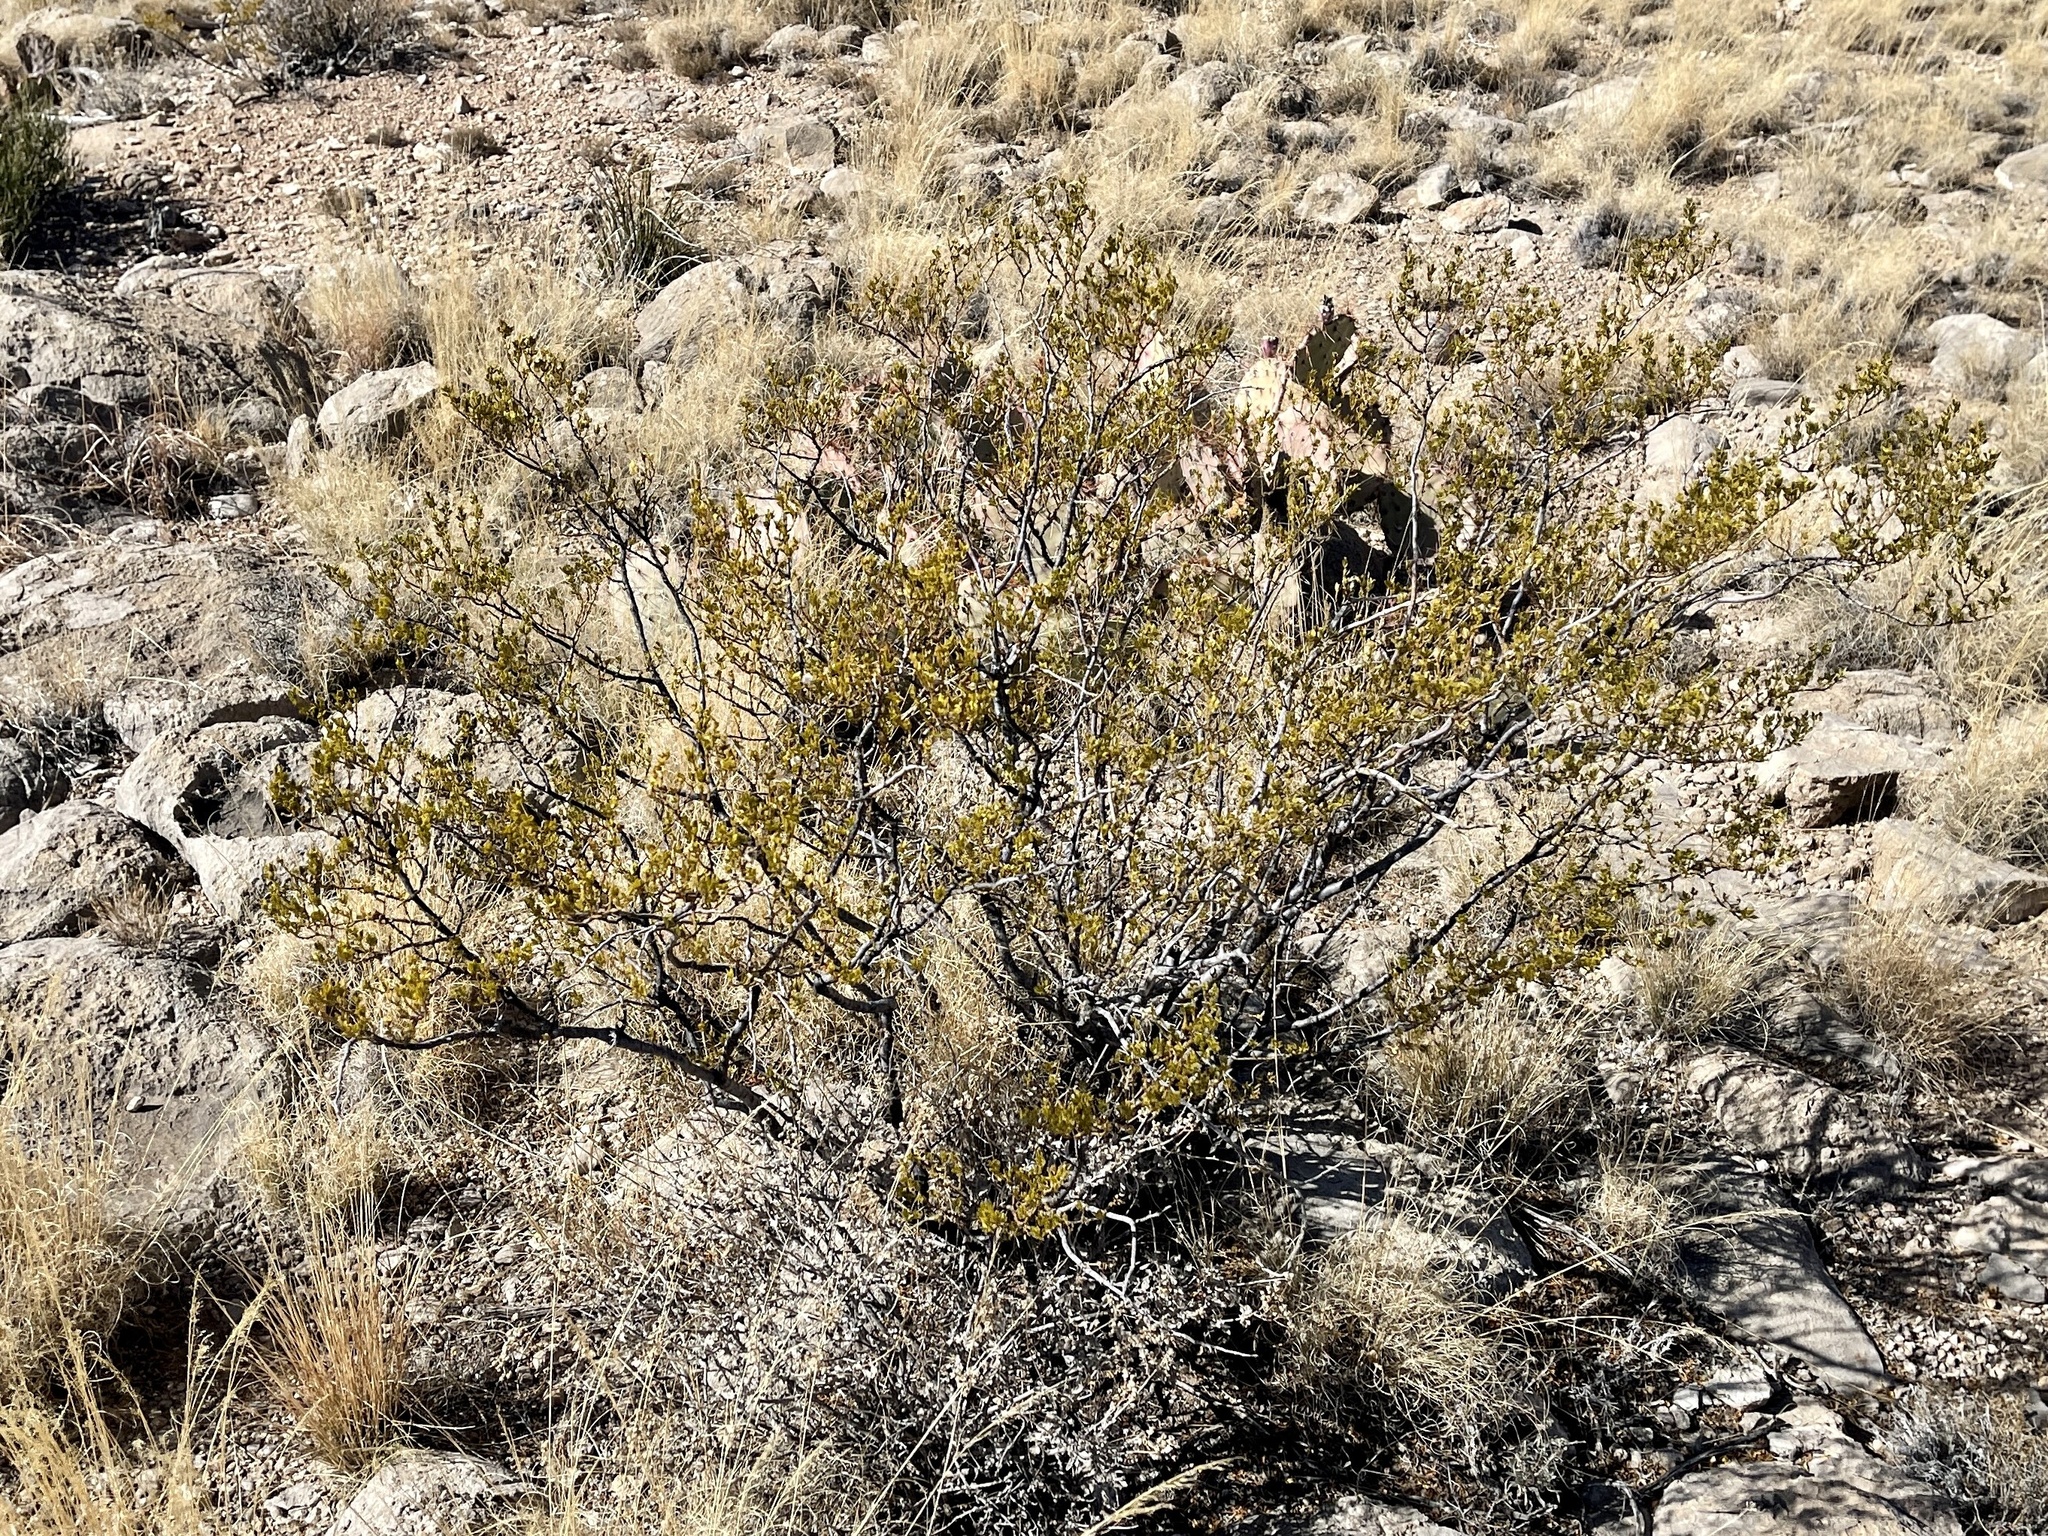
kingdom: Plantae
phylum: Tracheophyta
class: Magnoliopsida
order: Zygophyllales
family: Zygophyllaceae
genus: Larrea
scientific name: Larrea tridentata
